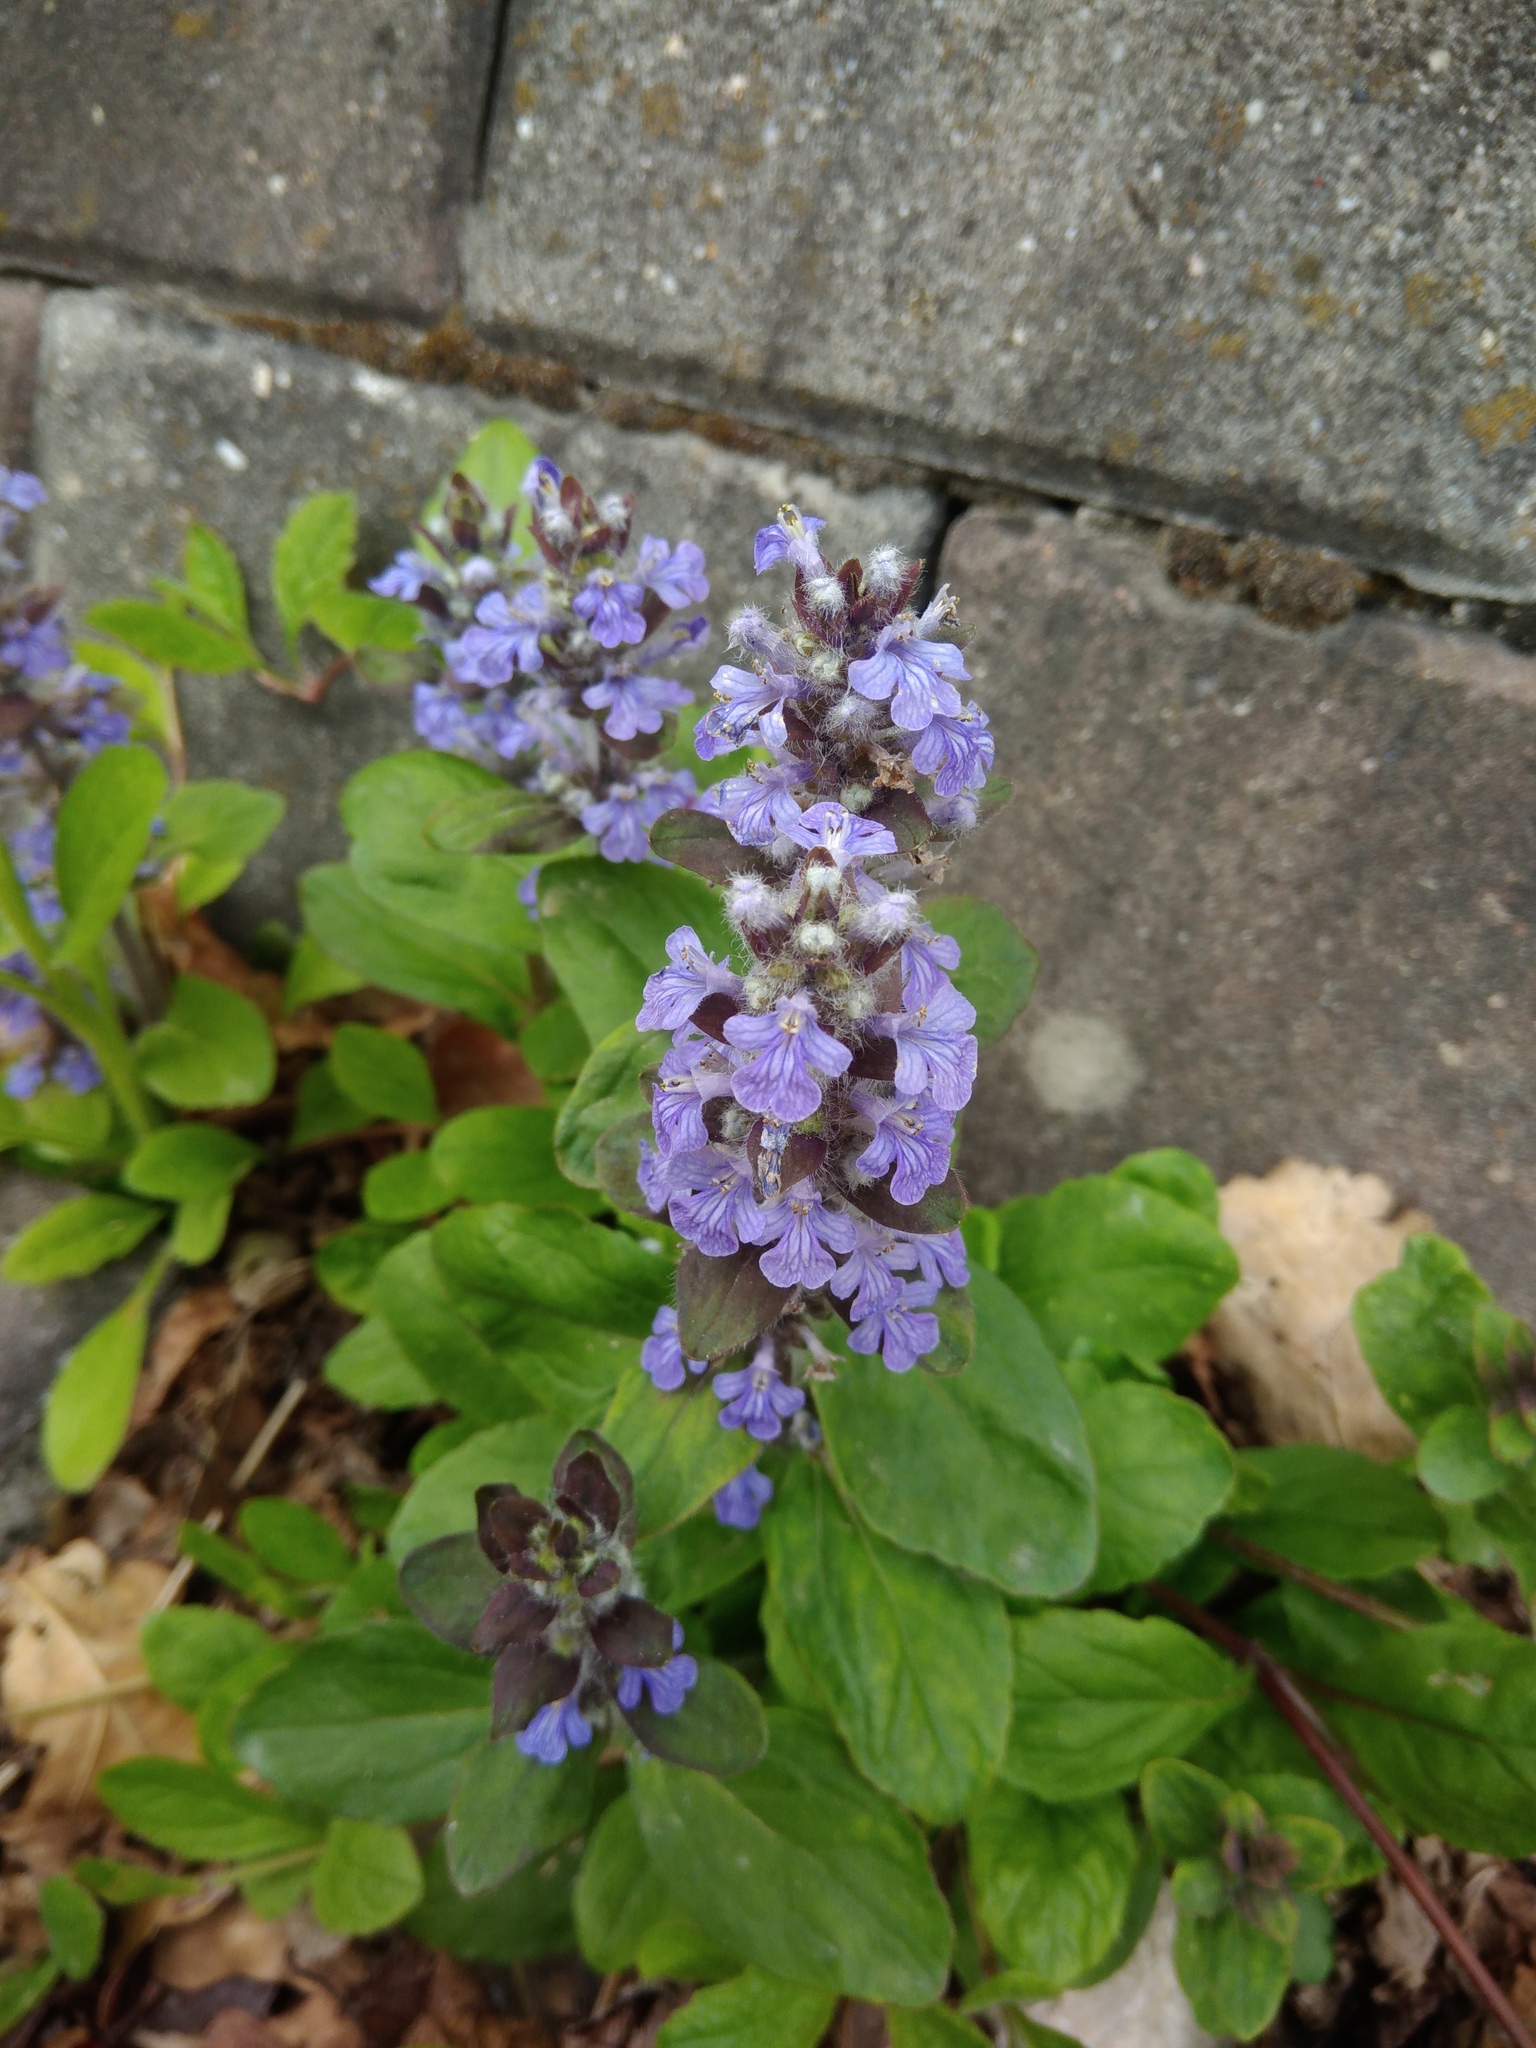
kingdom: Plantae
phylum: Tracheophyta
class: Magnoliopsida
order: Lamiales
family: Lamiaceae
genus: Ajuga
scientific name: Ajuga reptans
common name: Bugle
